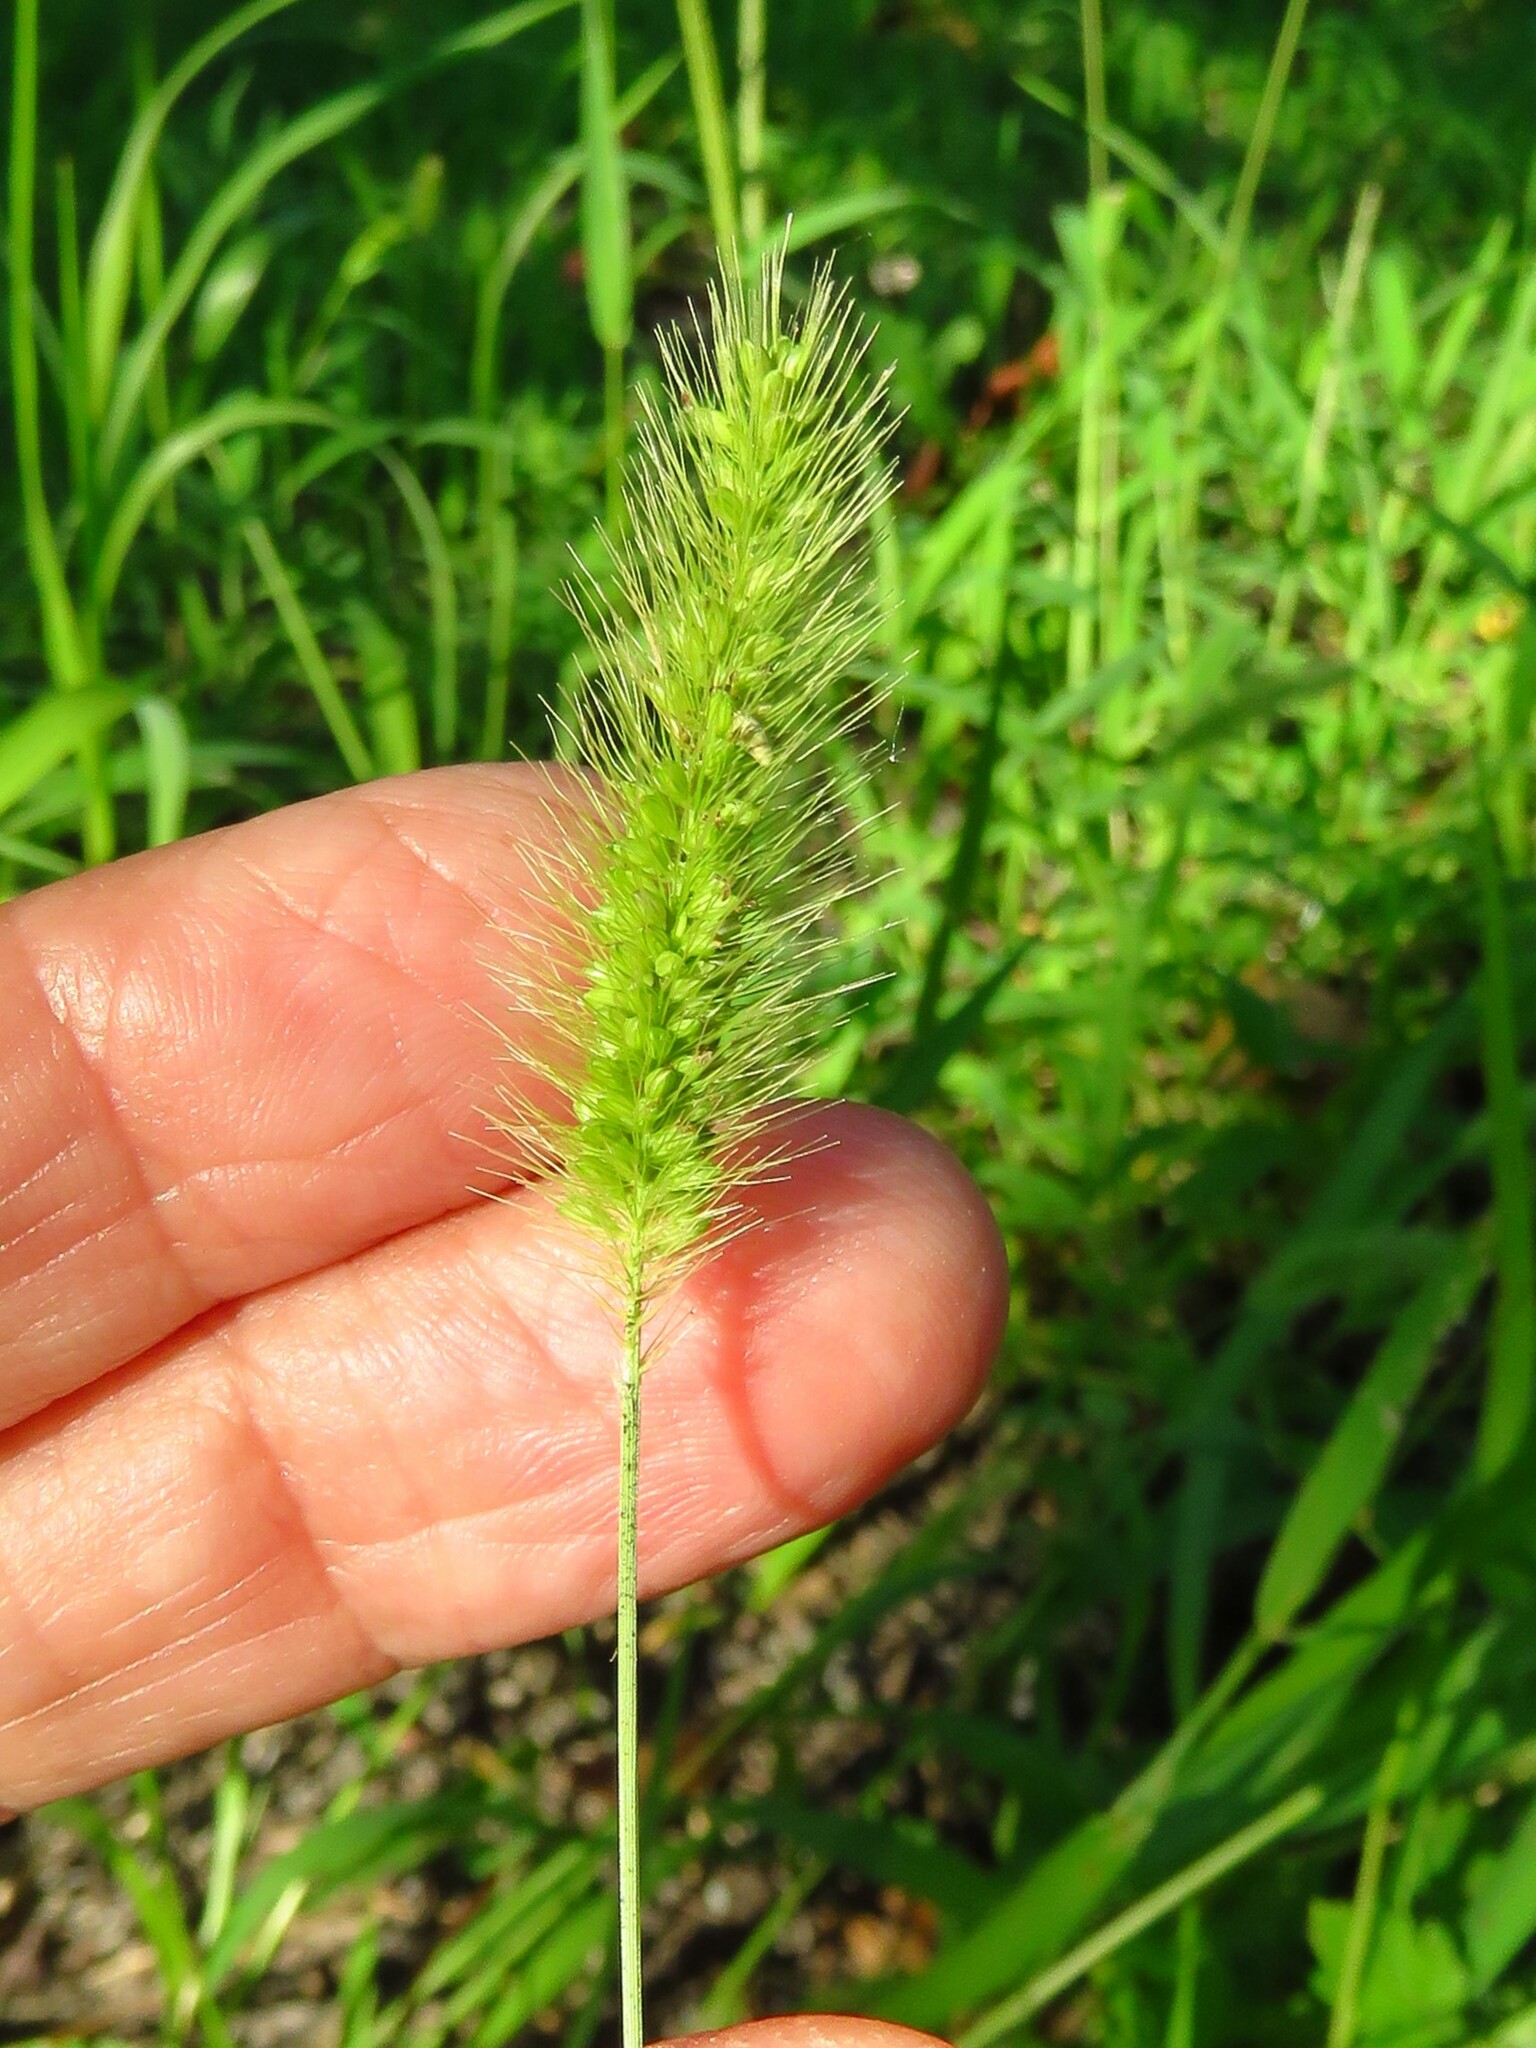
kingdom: Plantae
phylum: Tracheophyta
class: Liliopsida
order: Poales
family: Poaceae
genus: Setaria
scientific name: Setaria viridis
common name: Green bristlegrass
